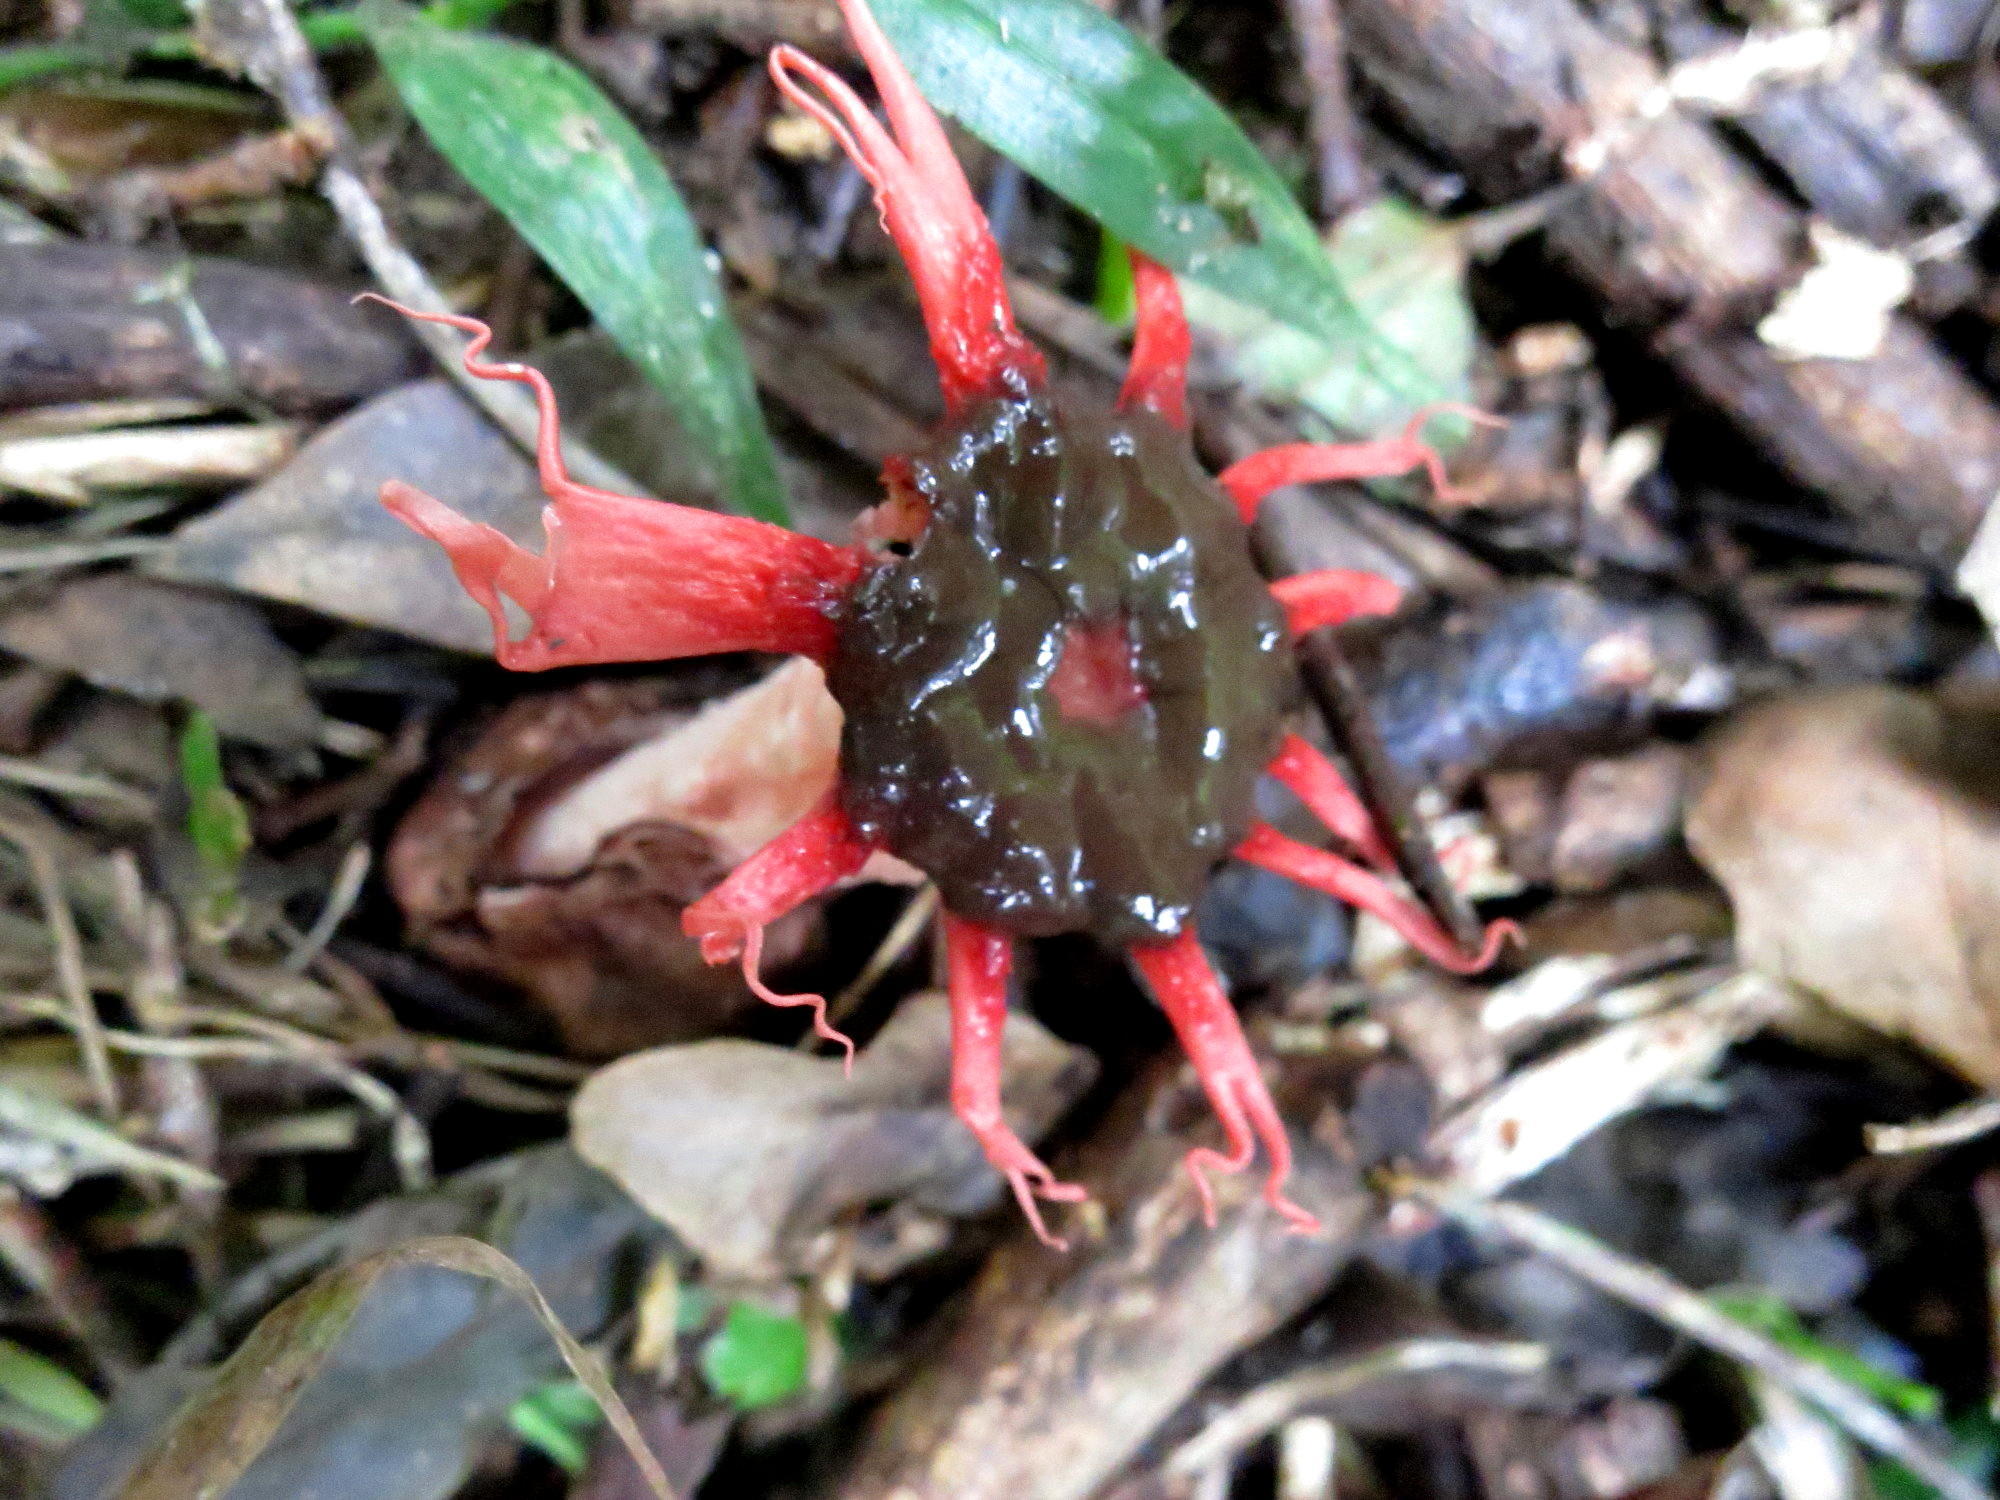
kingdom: Fungi
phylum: Basidiomycota
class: Agaricomycetes
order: Phallales
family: Phallaceae
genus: Aseroe
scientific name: Aseroe rubra
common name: Starfish fungus
